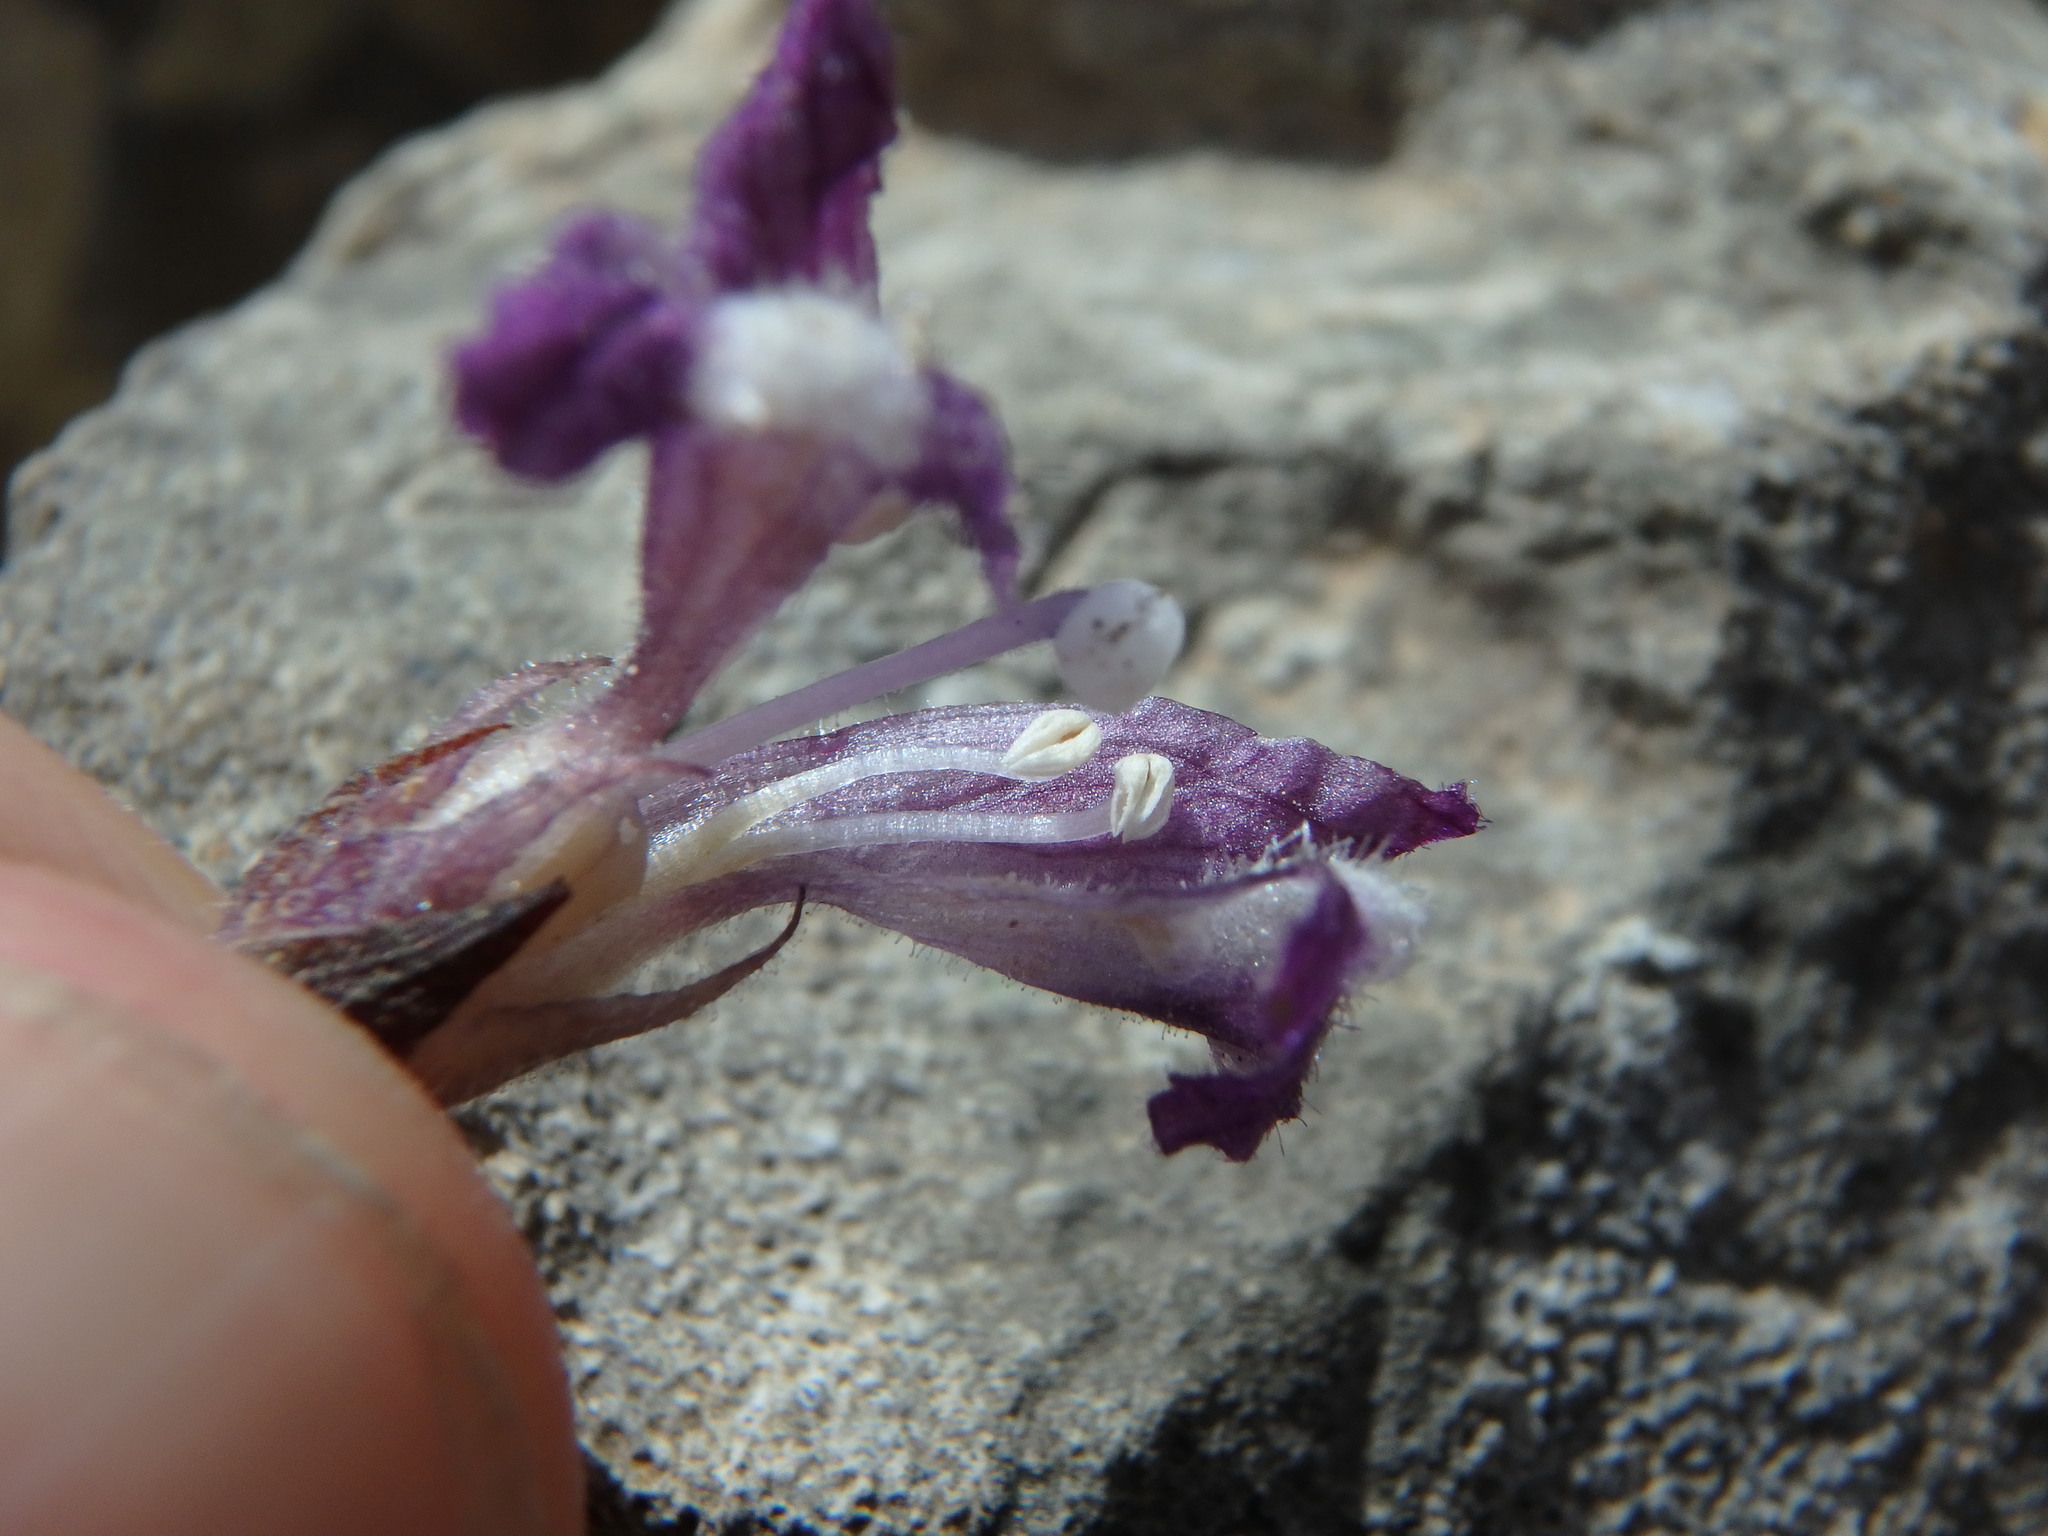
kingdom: Plantae
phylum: Tracheophyta
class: Magnoliopsida
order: Lamiales
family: Orobanchaceae
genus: Phelipanche
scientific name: Phelipanche mutelii
